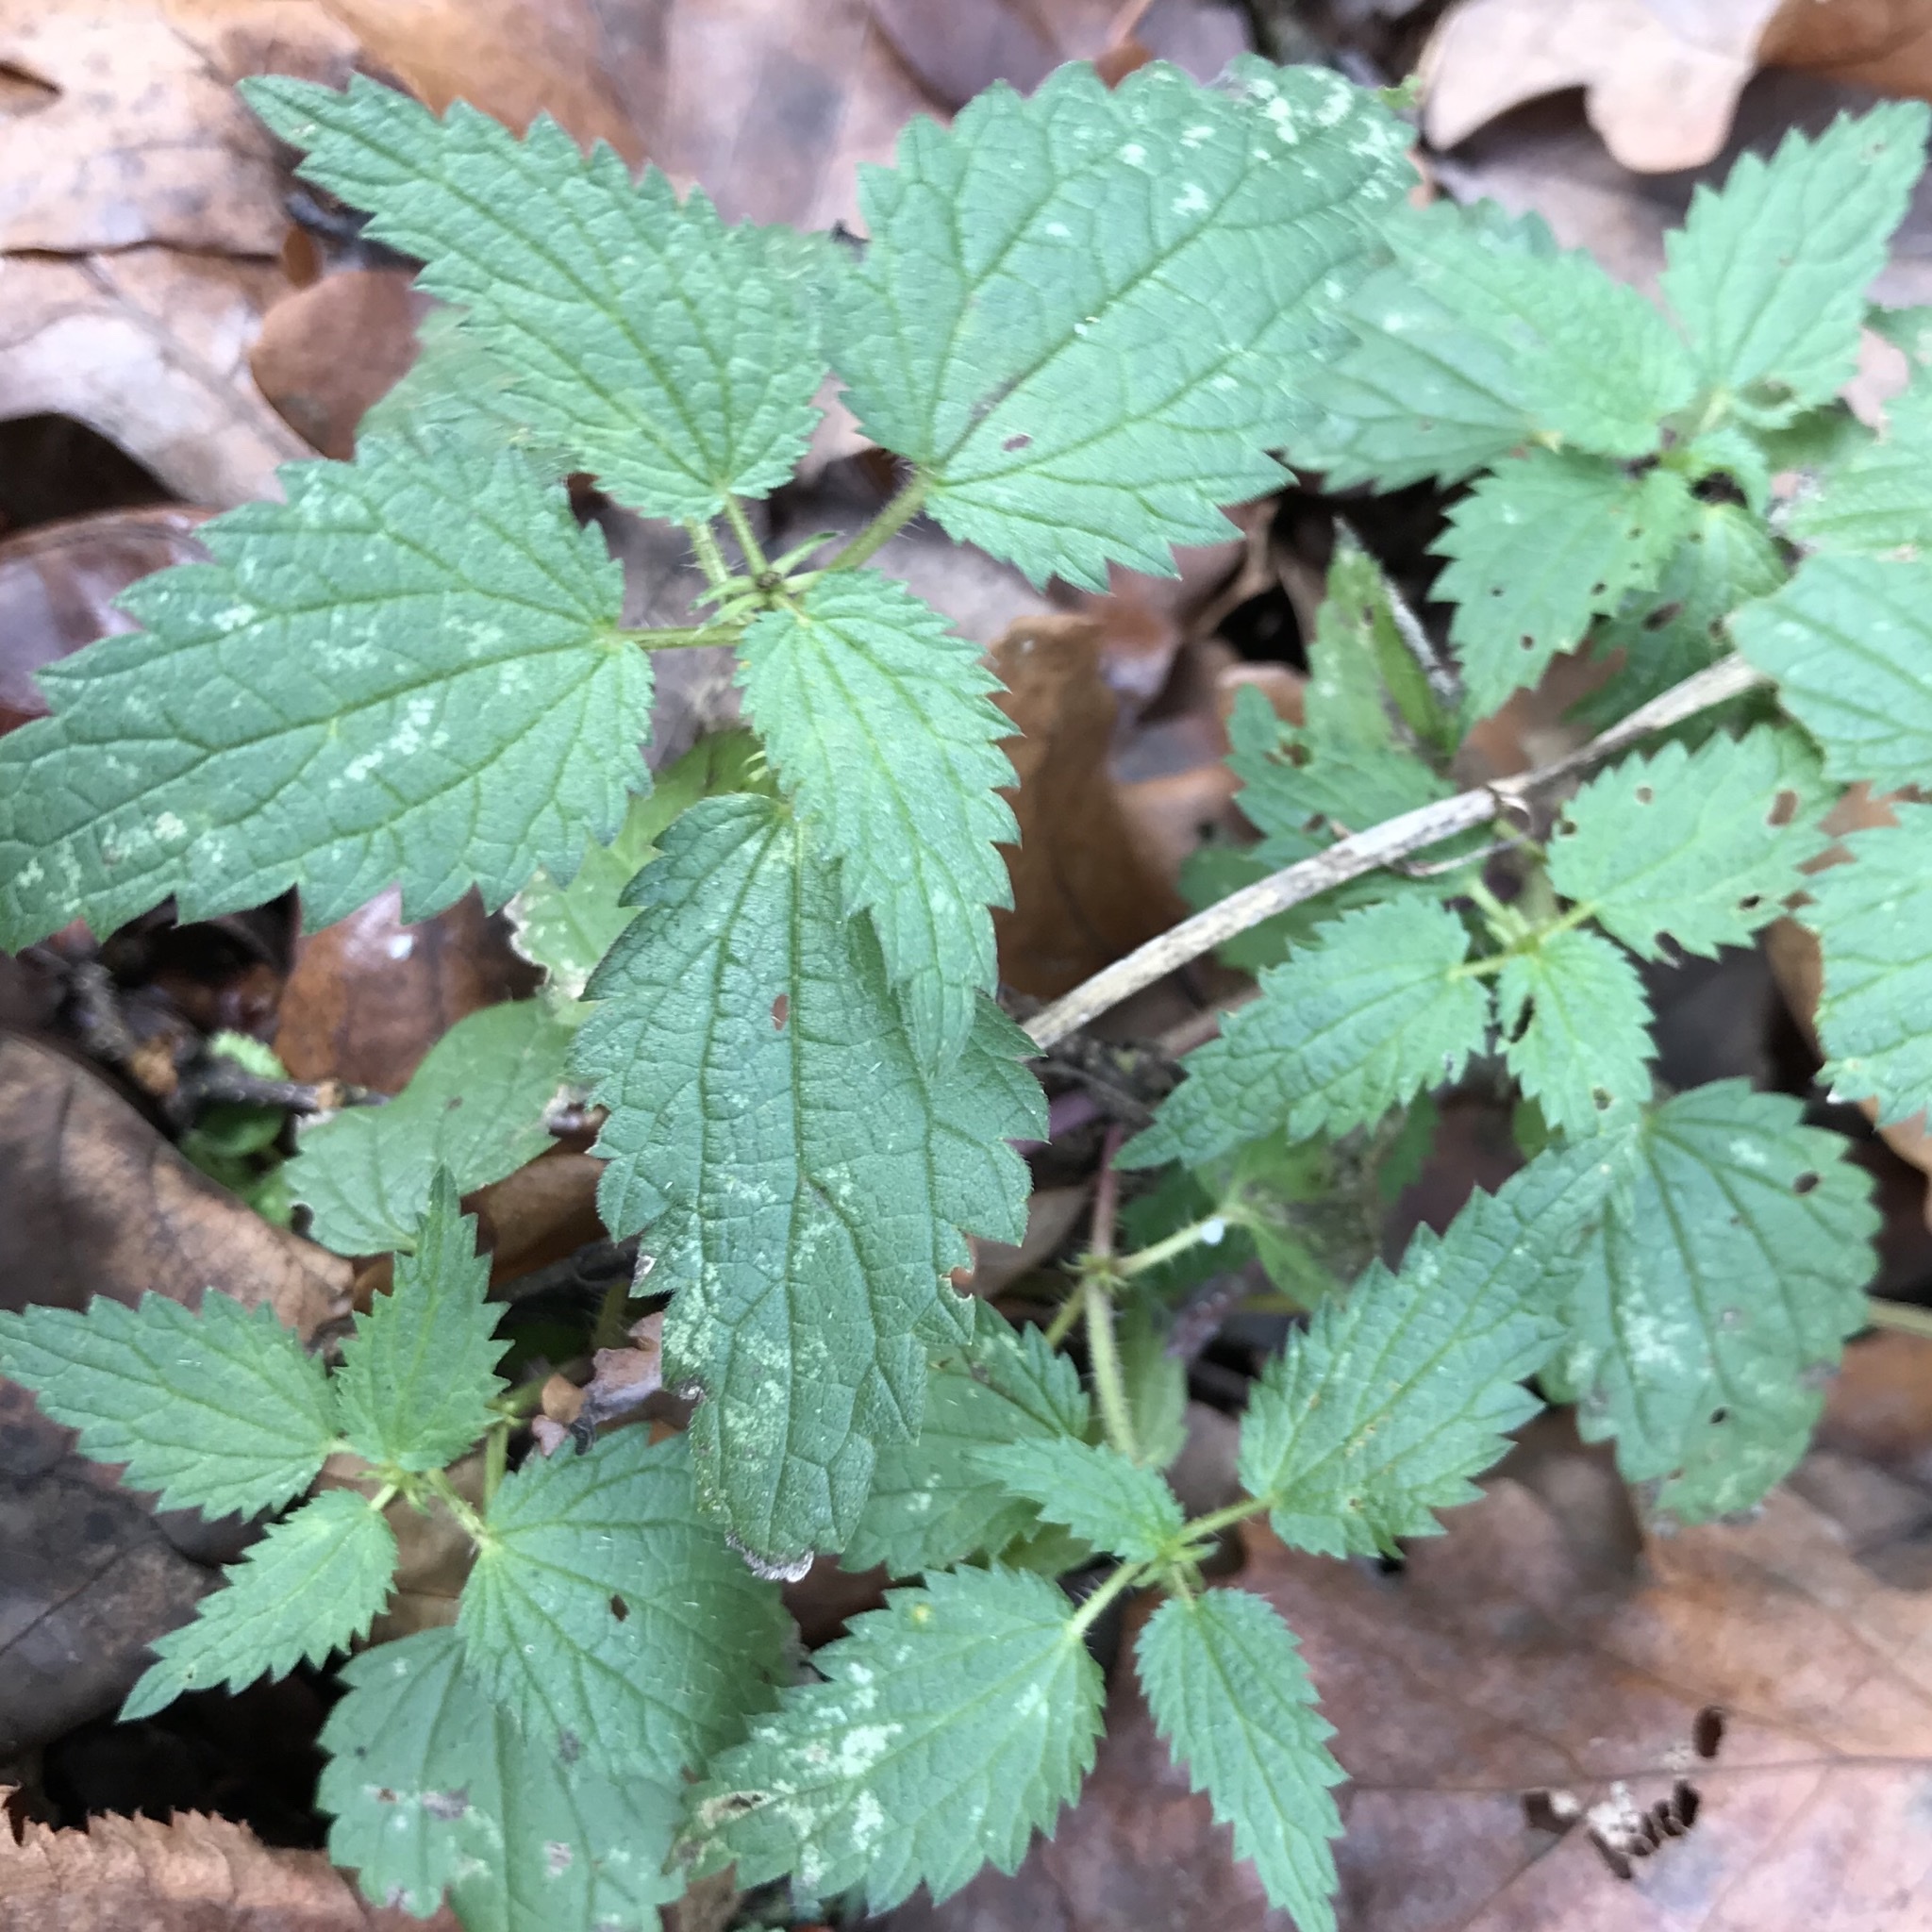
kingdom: Plantae
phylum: Tracheophyta
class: Magnoliopsida
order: Rosales
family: Urticaceae
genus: Urtica
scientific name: Urtica dioica
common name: Common nettle
